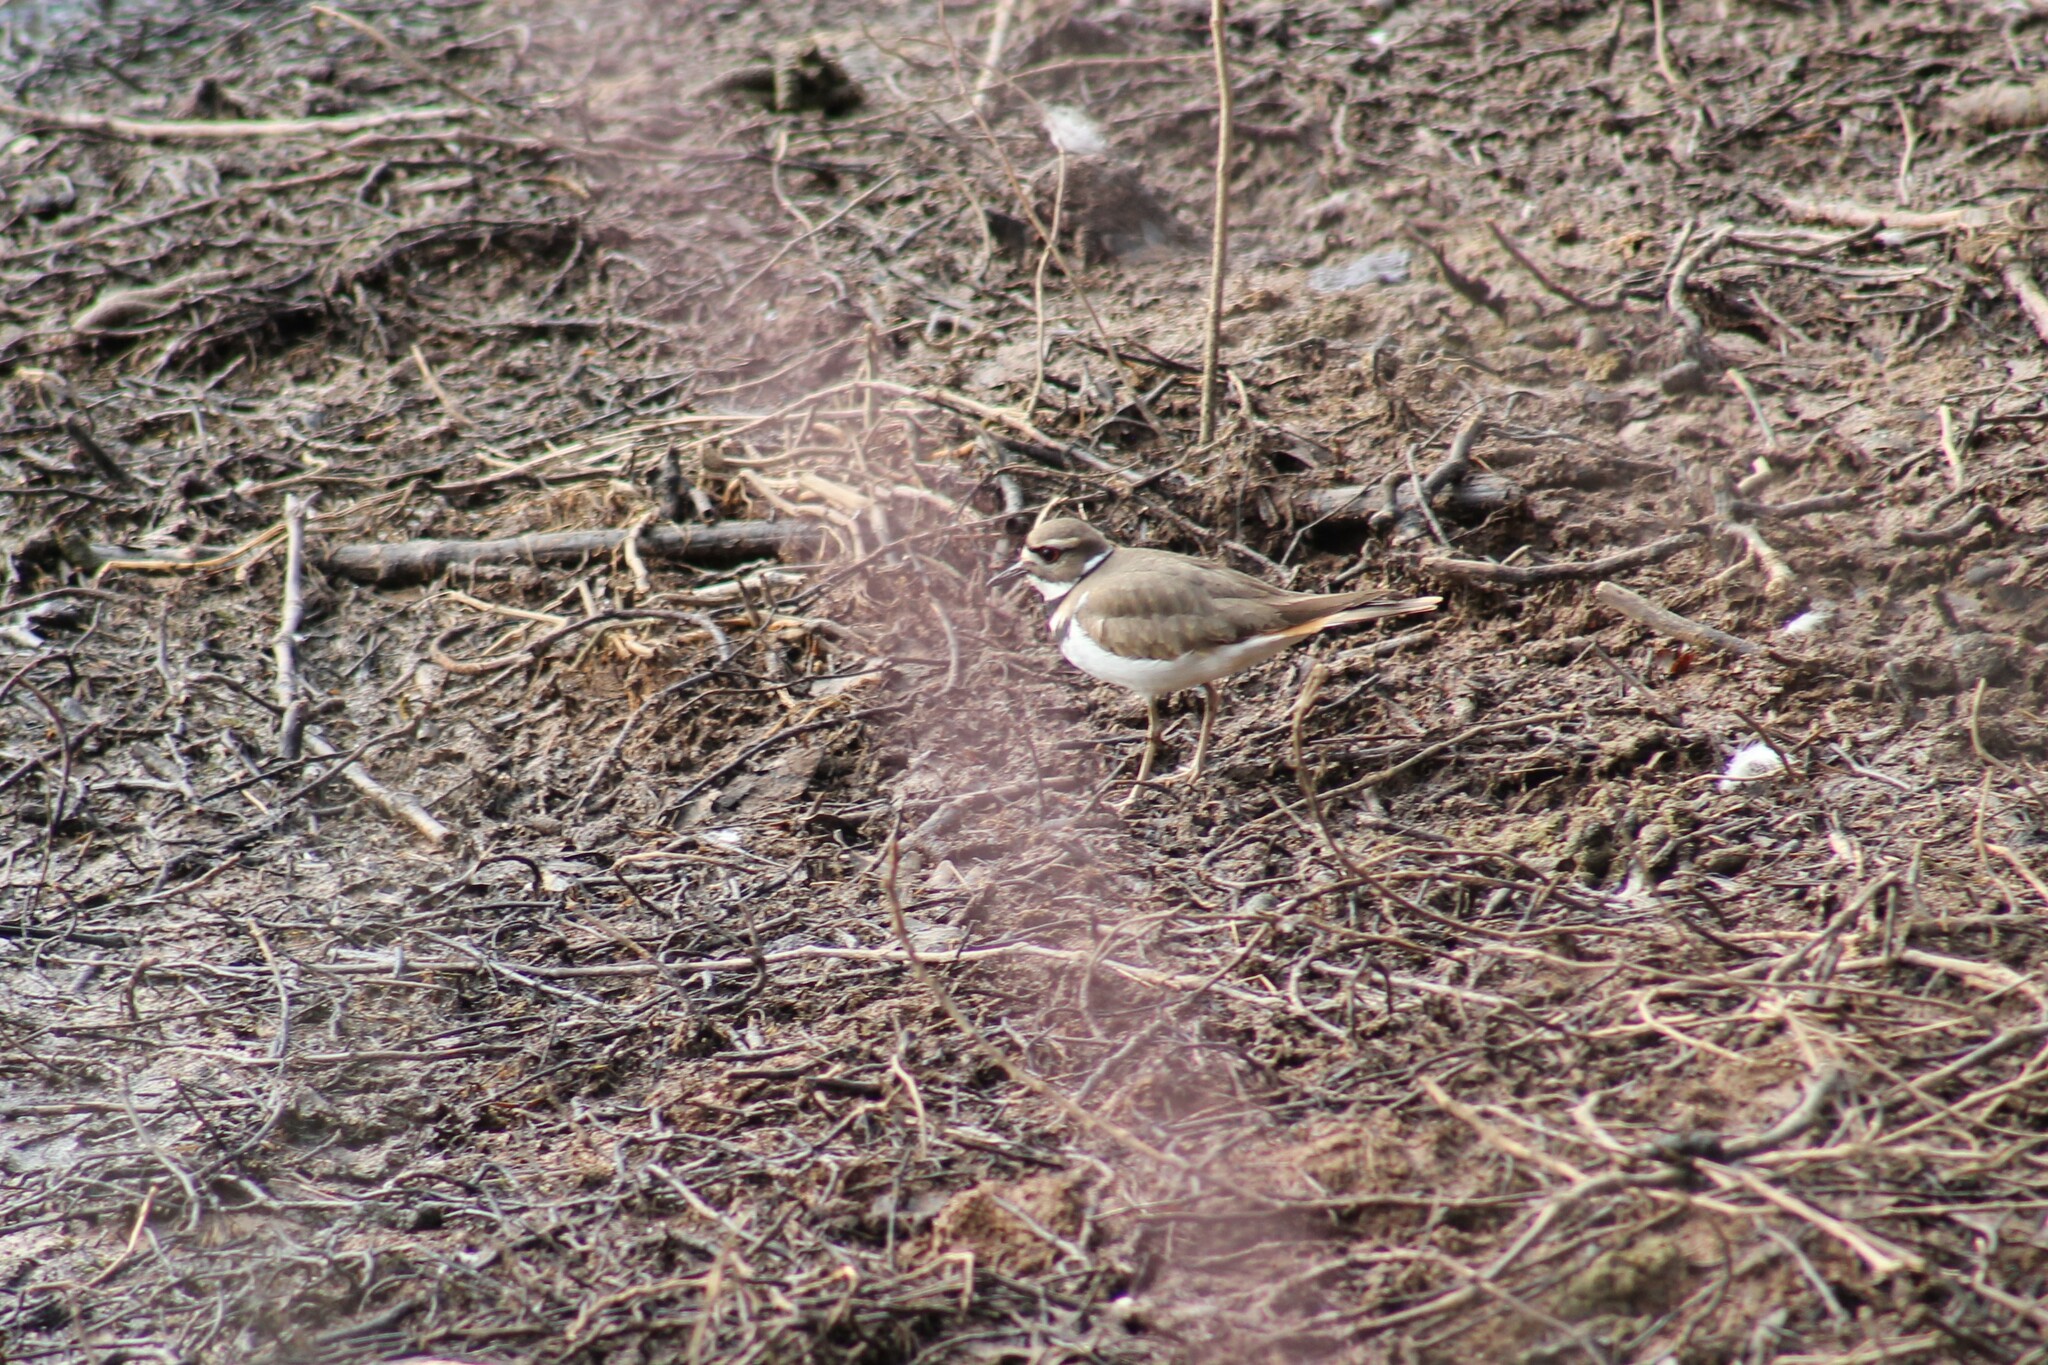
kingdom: Animalia
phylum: Chordata
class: Aves
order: Charadriiformes
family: Charadriidae
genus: Charadrius
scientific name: Charadrius vociferus
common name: Killdeer
